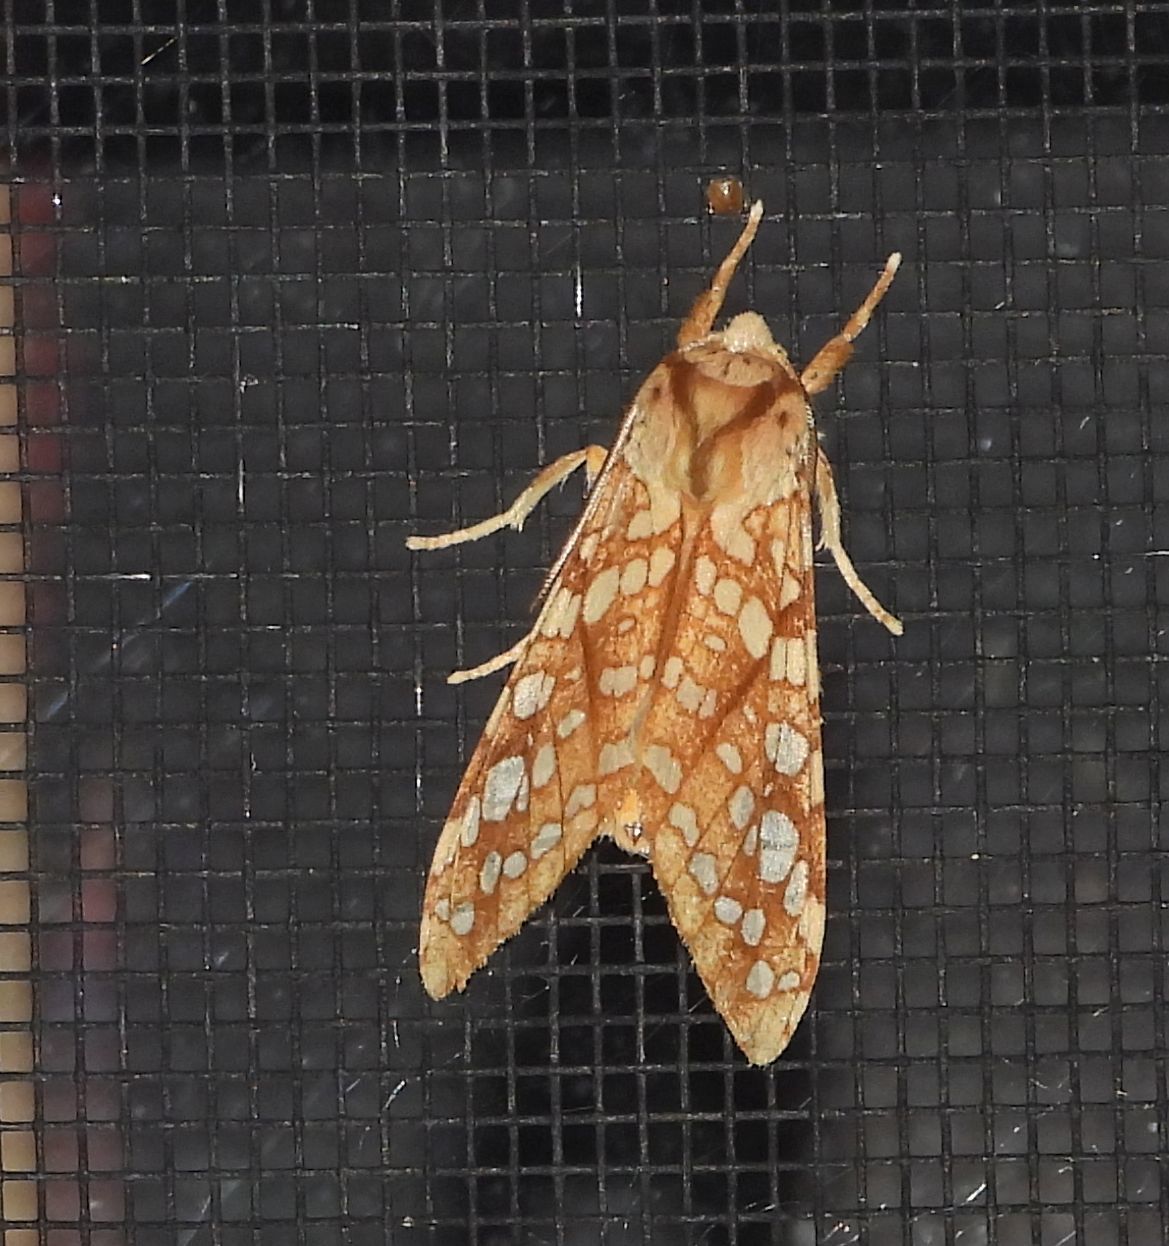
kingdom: Animalia
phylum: Arthropoda
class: Insecta
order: Lepidoptera
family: Erebidae
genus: Lophocampa
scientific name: Lophocampa caryae
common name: Hickory tussock moth
